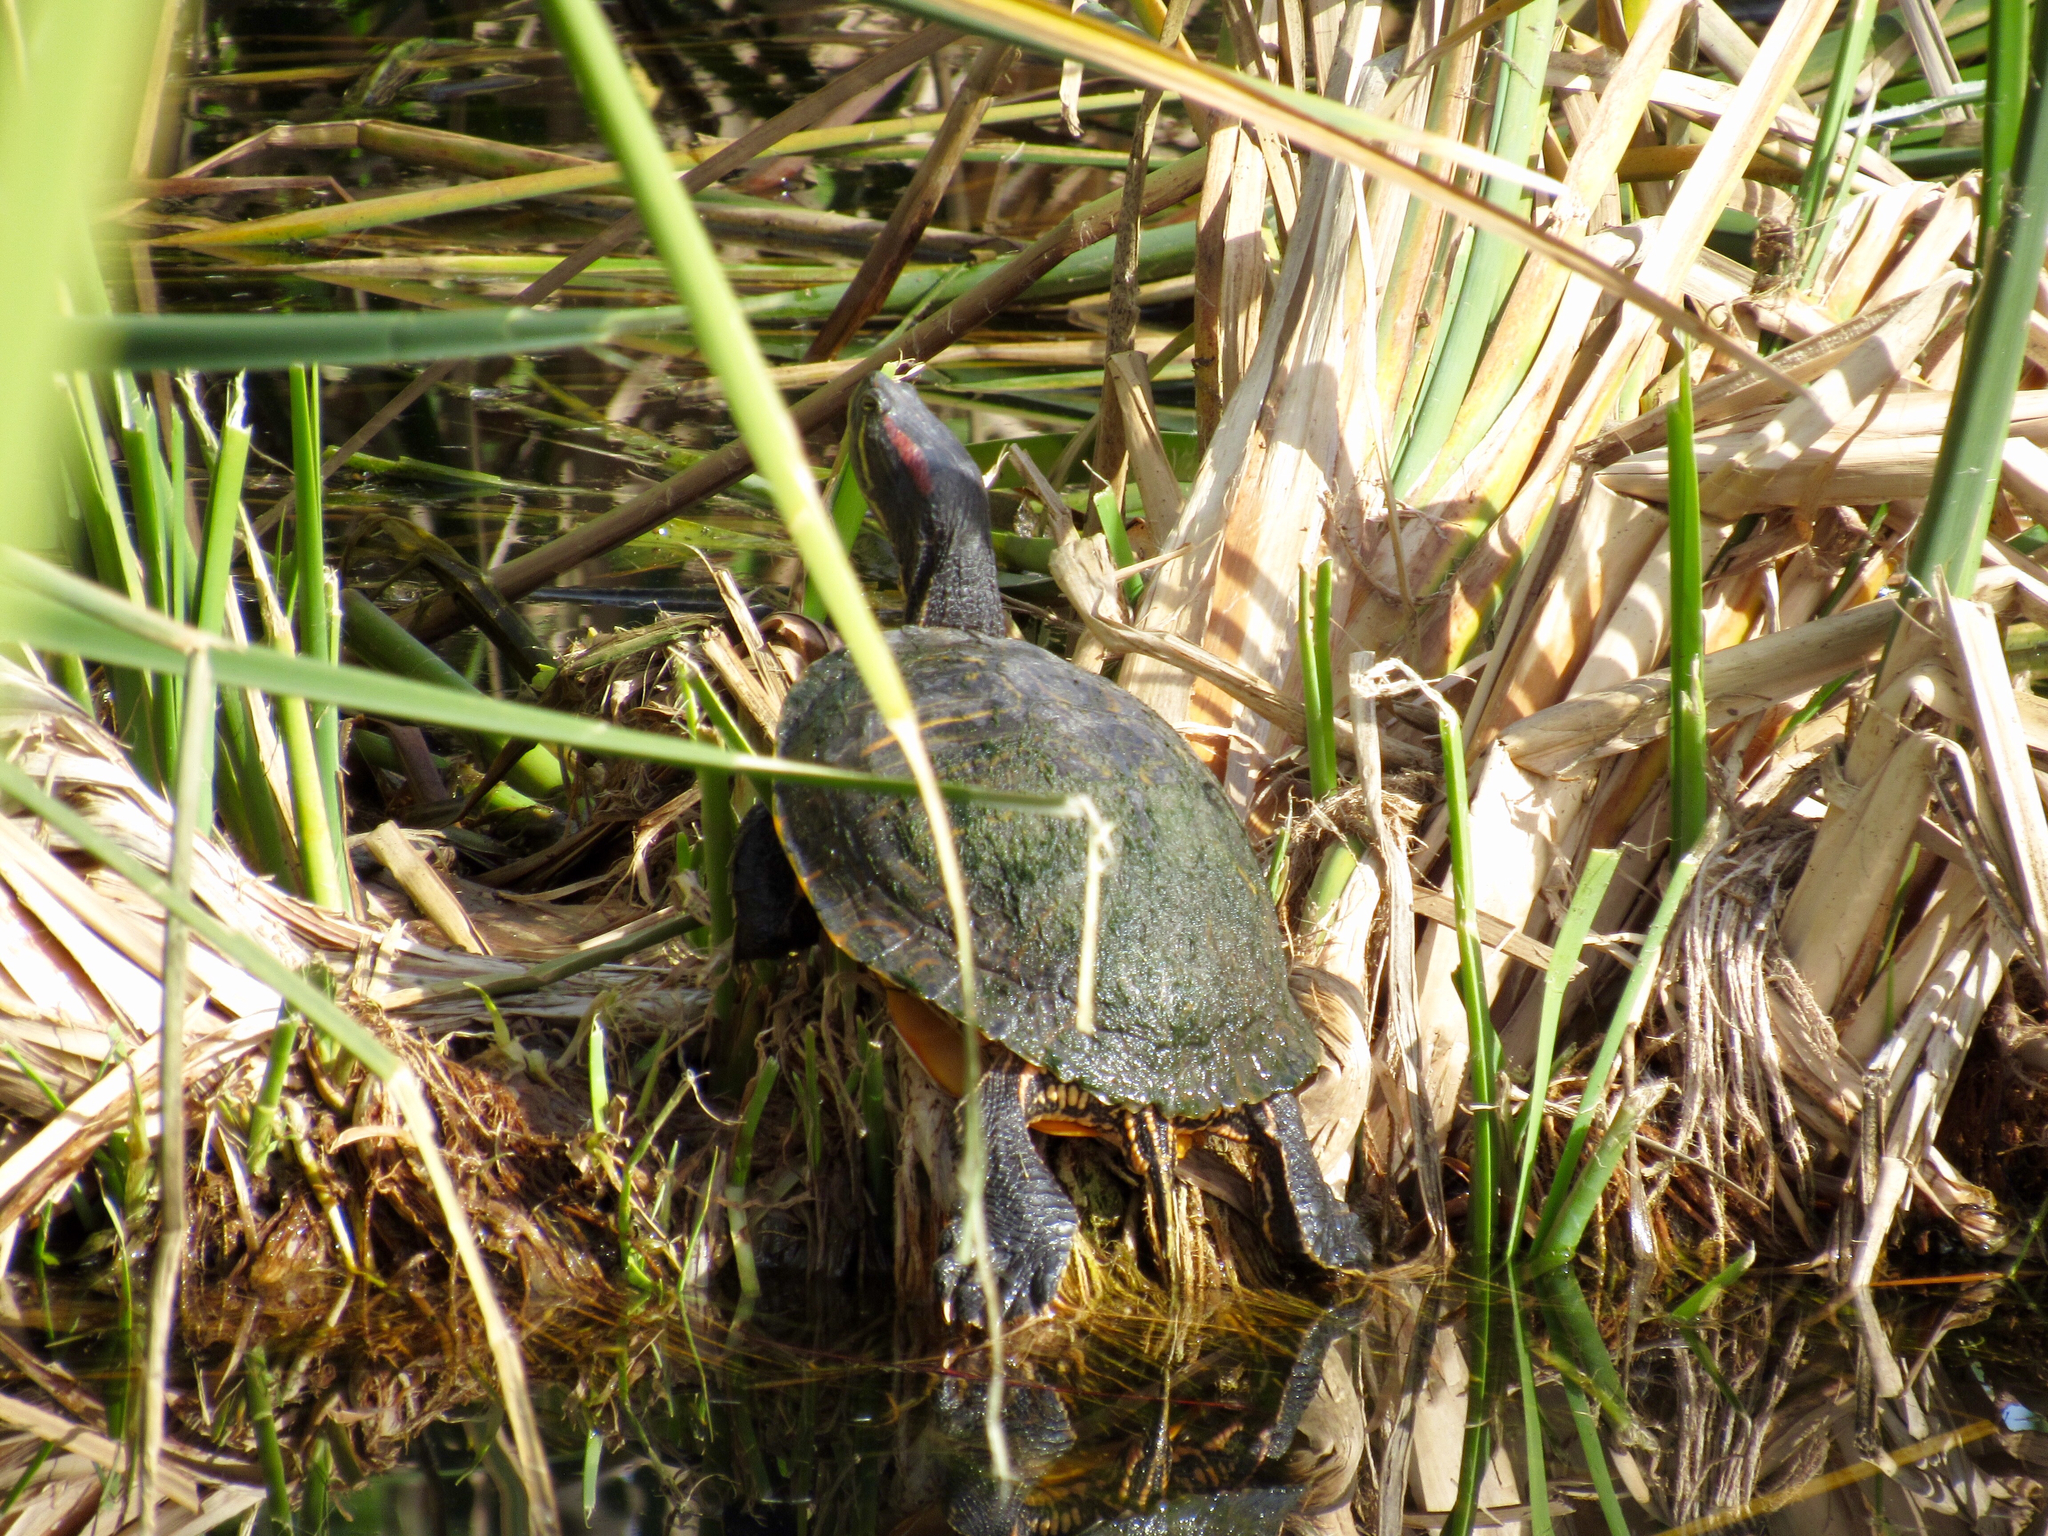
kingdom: Animalia
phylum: Chordata
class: Testudines
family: Emydidae
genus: Trachemys
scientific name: Trachemys scripta
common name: Slider
